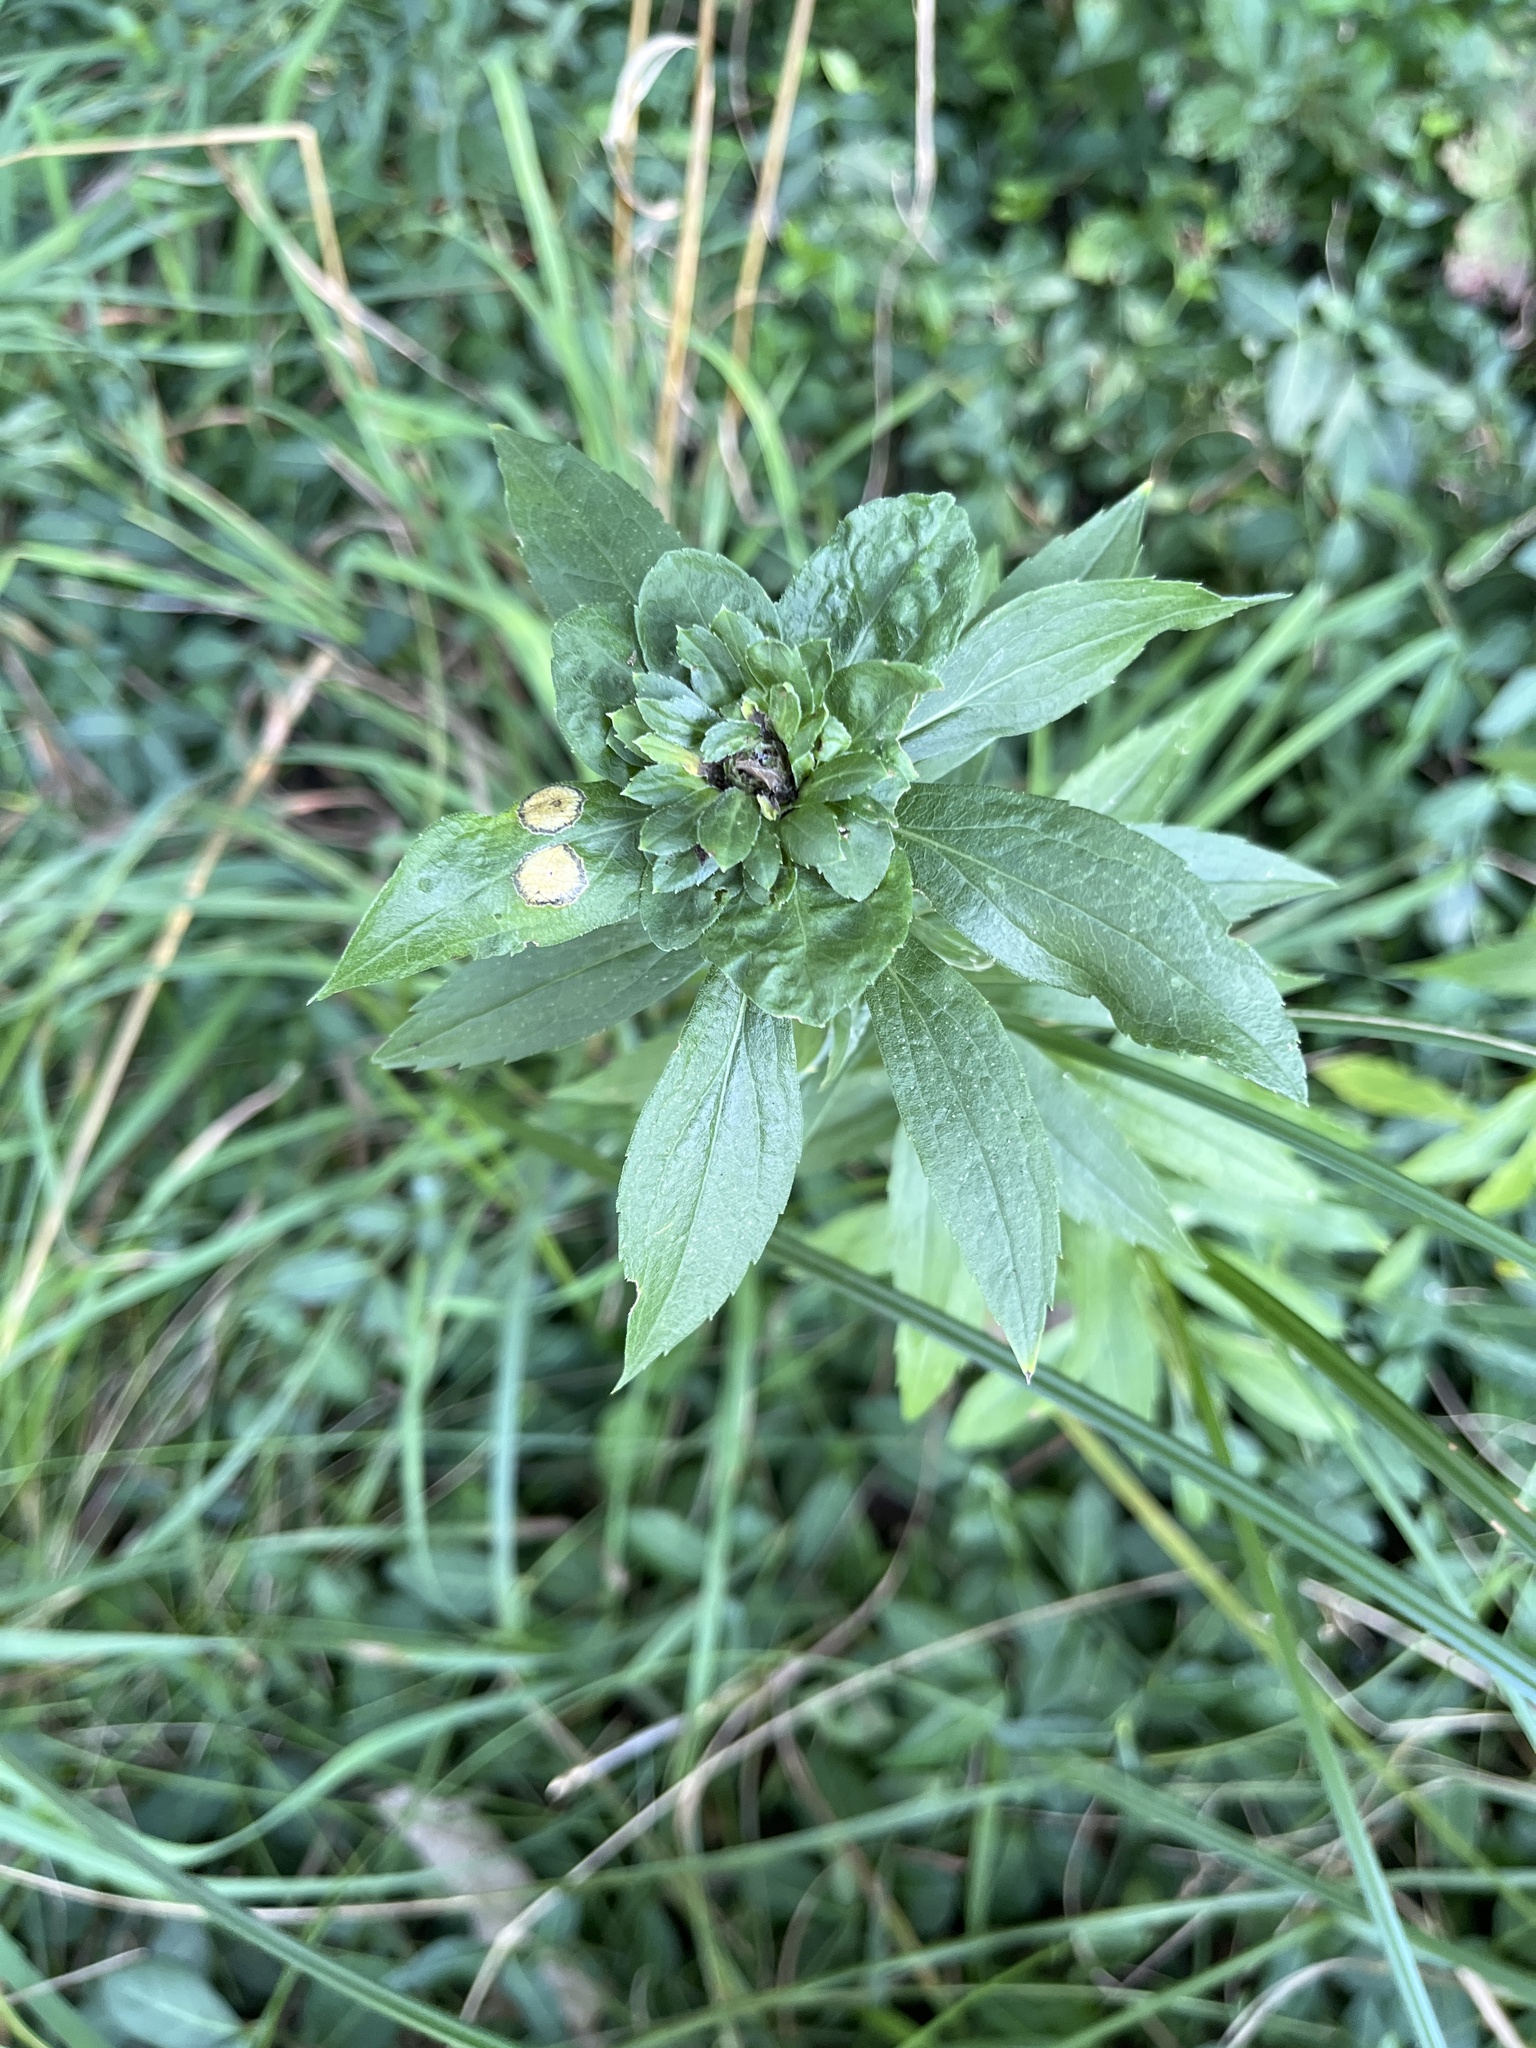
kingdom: Animalia
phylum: Arthropoda
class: Insecta
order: Diptera
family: Tephritidae
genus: Procecidochares
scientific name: Procecidochares atra
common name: Goldenrod brussels sprout gall fly
